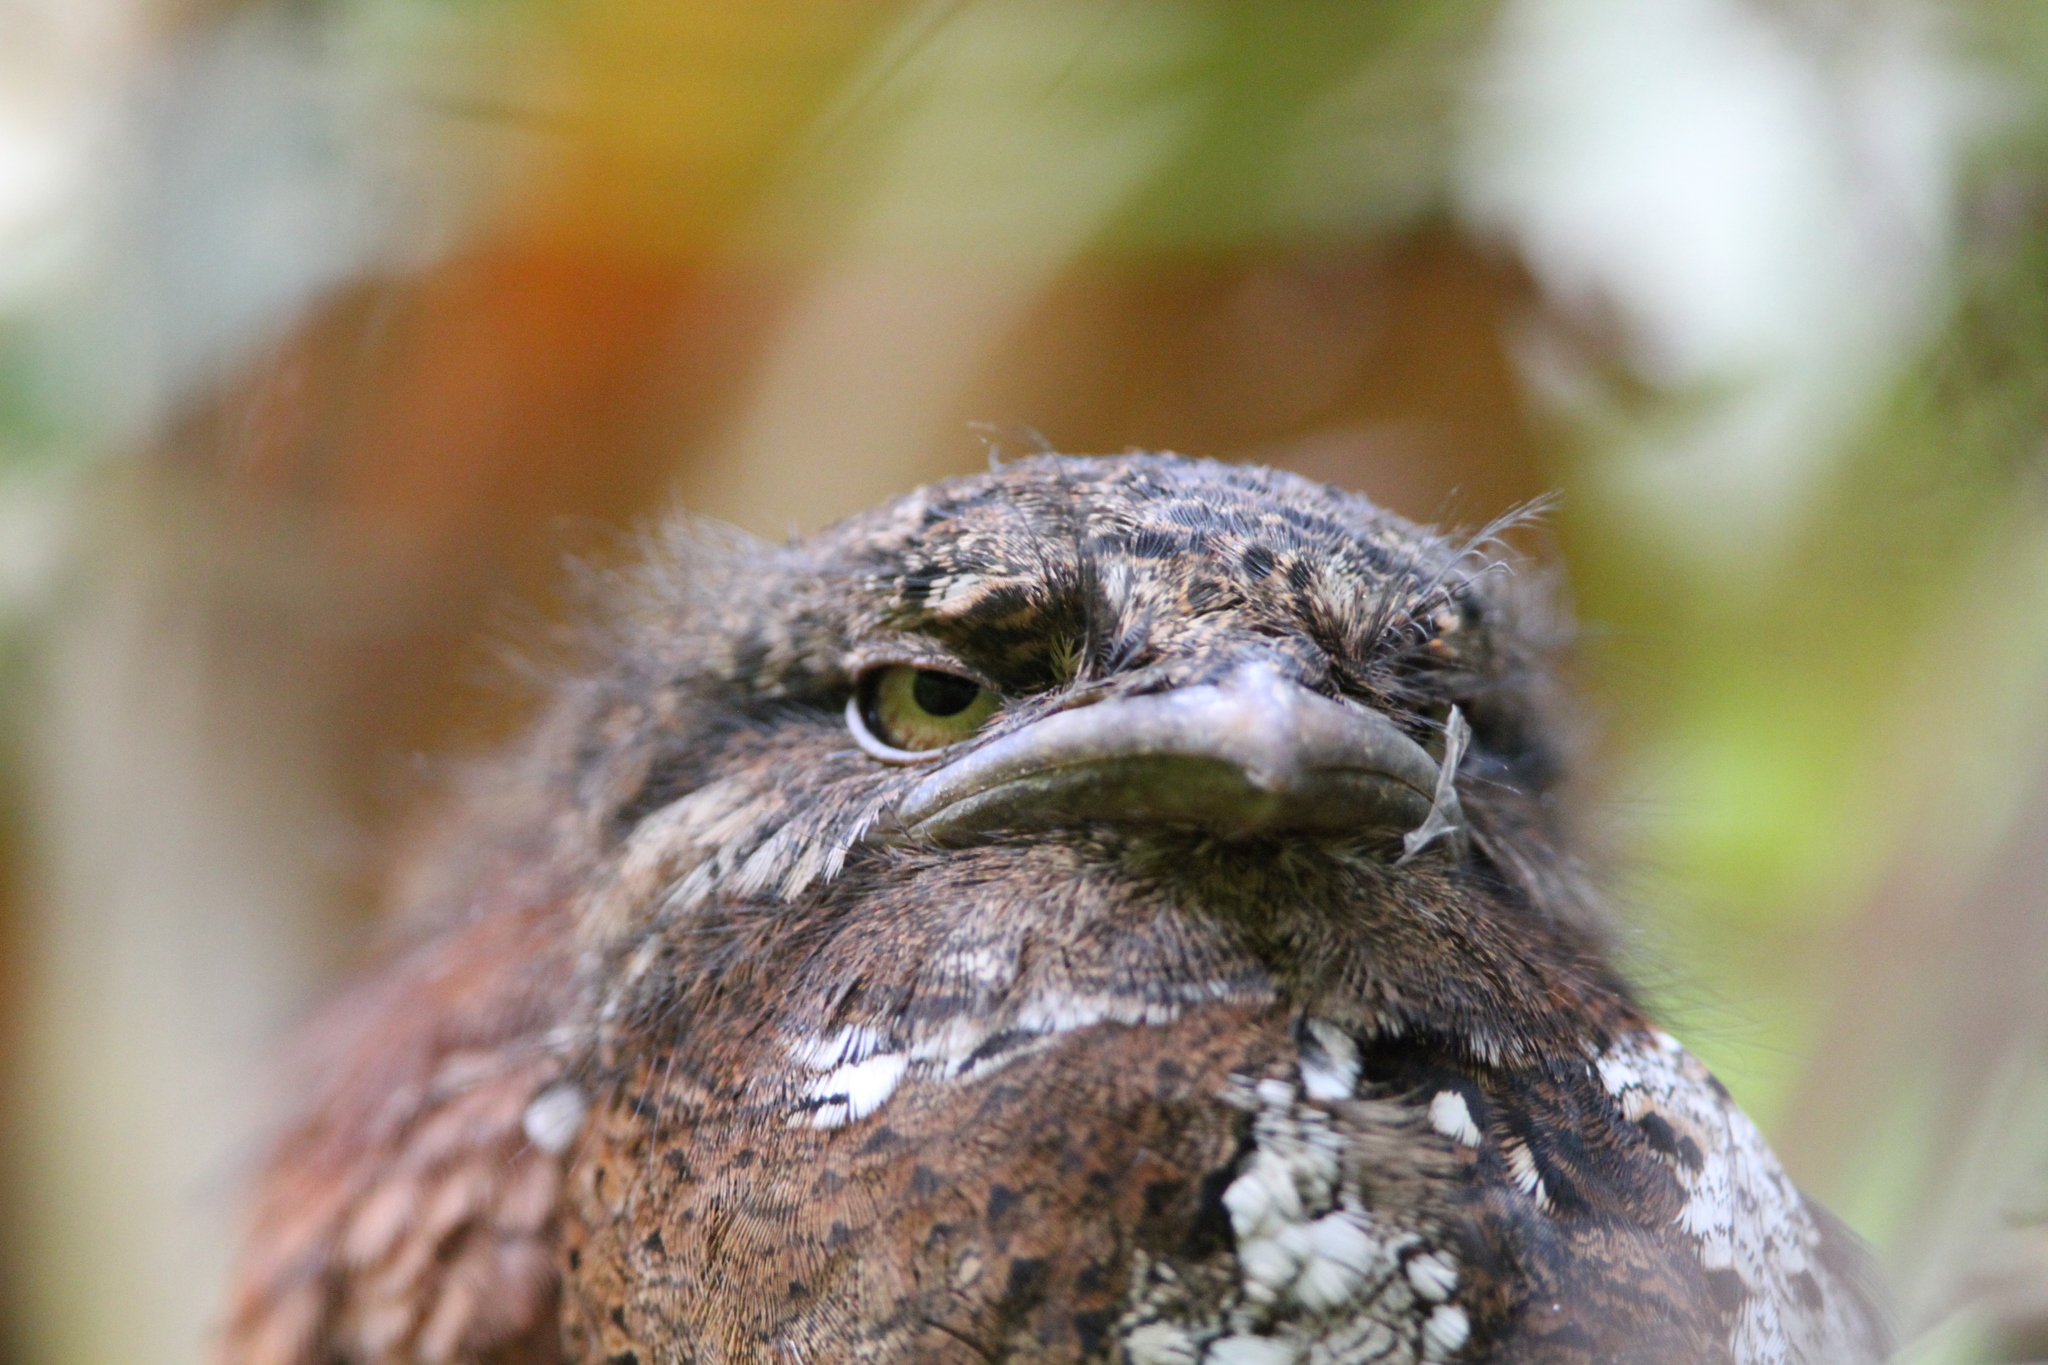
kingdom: Animalia
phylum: Chordata
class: Aves
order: Caprimulgiformes
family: Podargidae
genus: Batrachostomus
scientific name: Batrachostomus moniliger
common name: Sri lanka frogmouth
